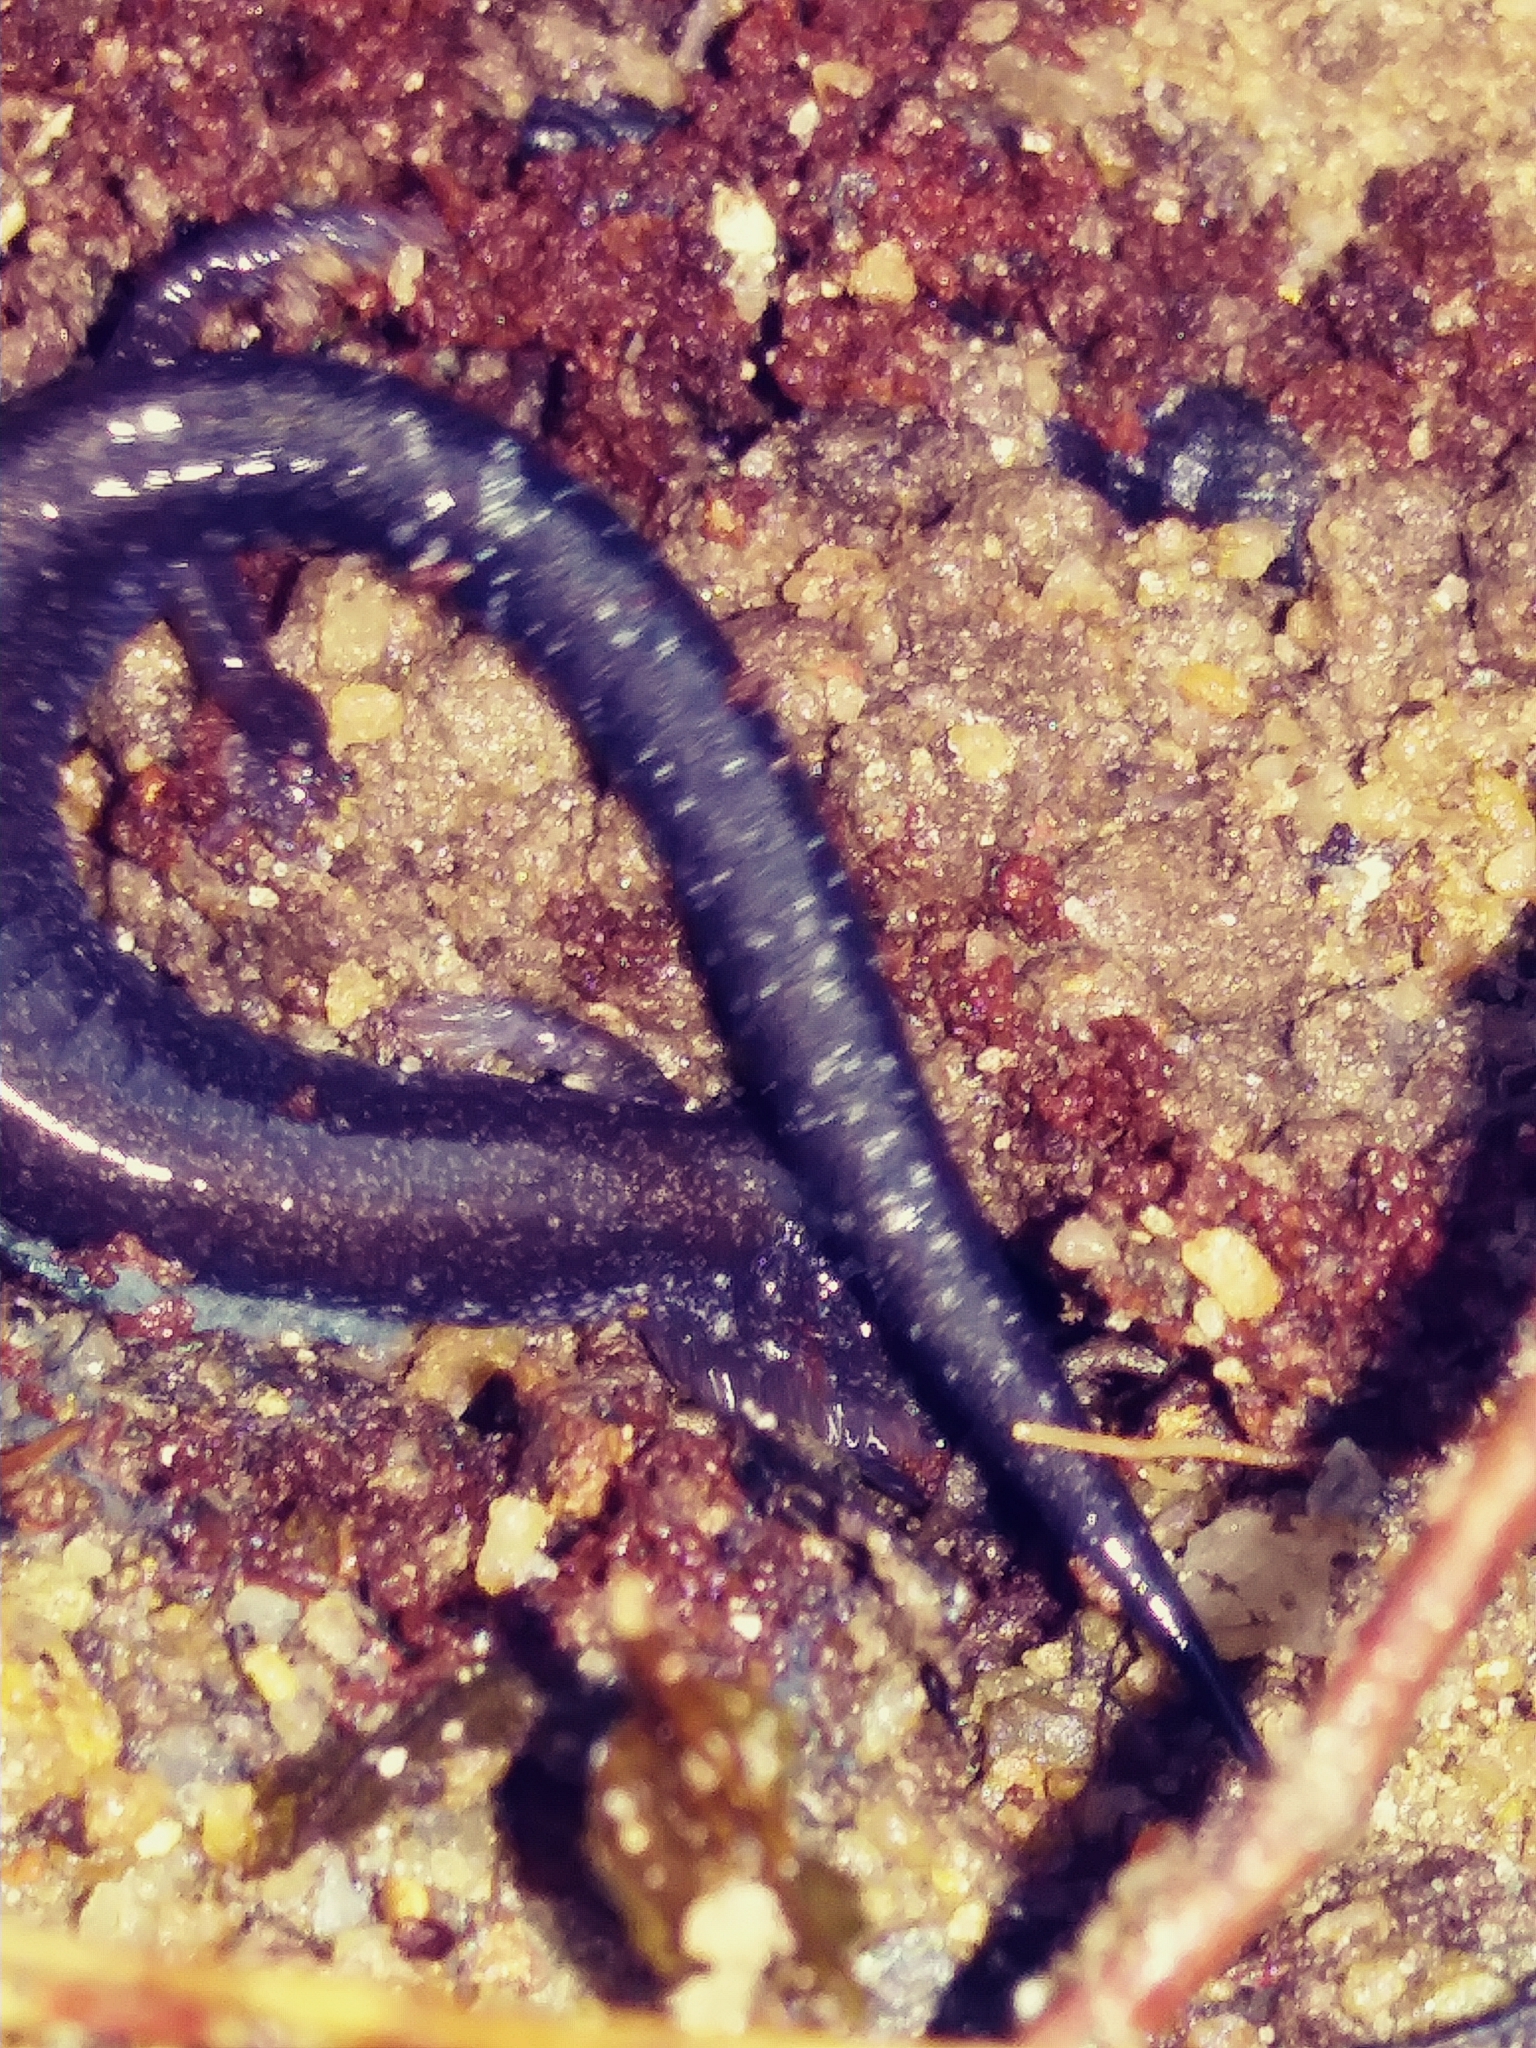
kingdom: Animalia
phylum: Chordata
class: Amphibia
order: Caudata
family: Plethodontidae
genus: Plethodon
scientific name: Plethodon cinereus
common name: Redback salamander
